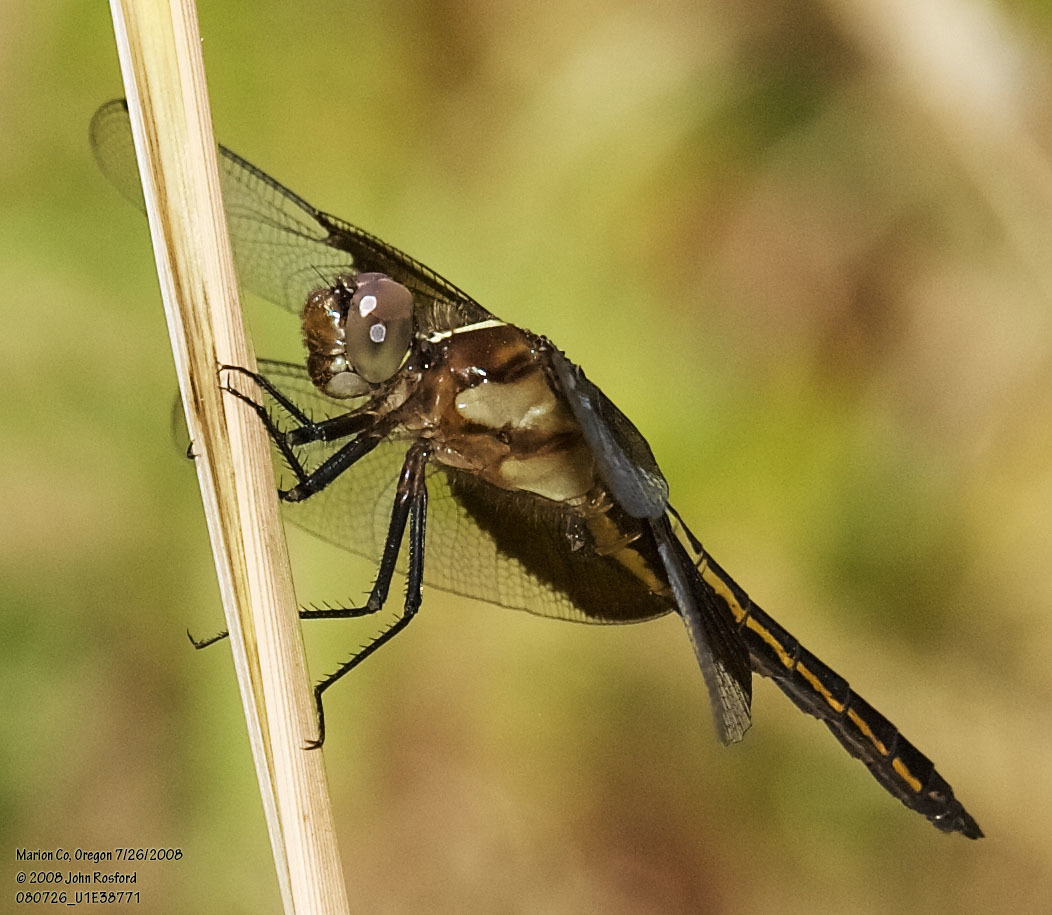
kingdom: Animalia
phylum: Arthropoda
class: Insecta
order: Odonata
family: Libellulidae
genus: Libellula
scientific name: Libellula luctuosa
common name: Widow skimmer
